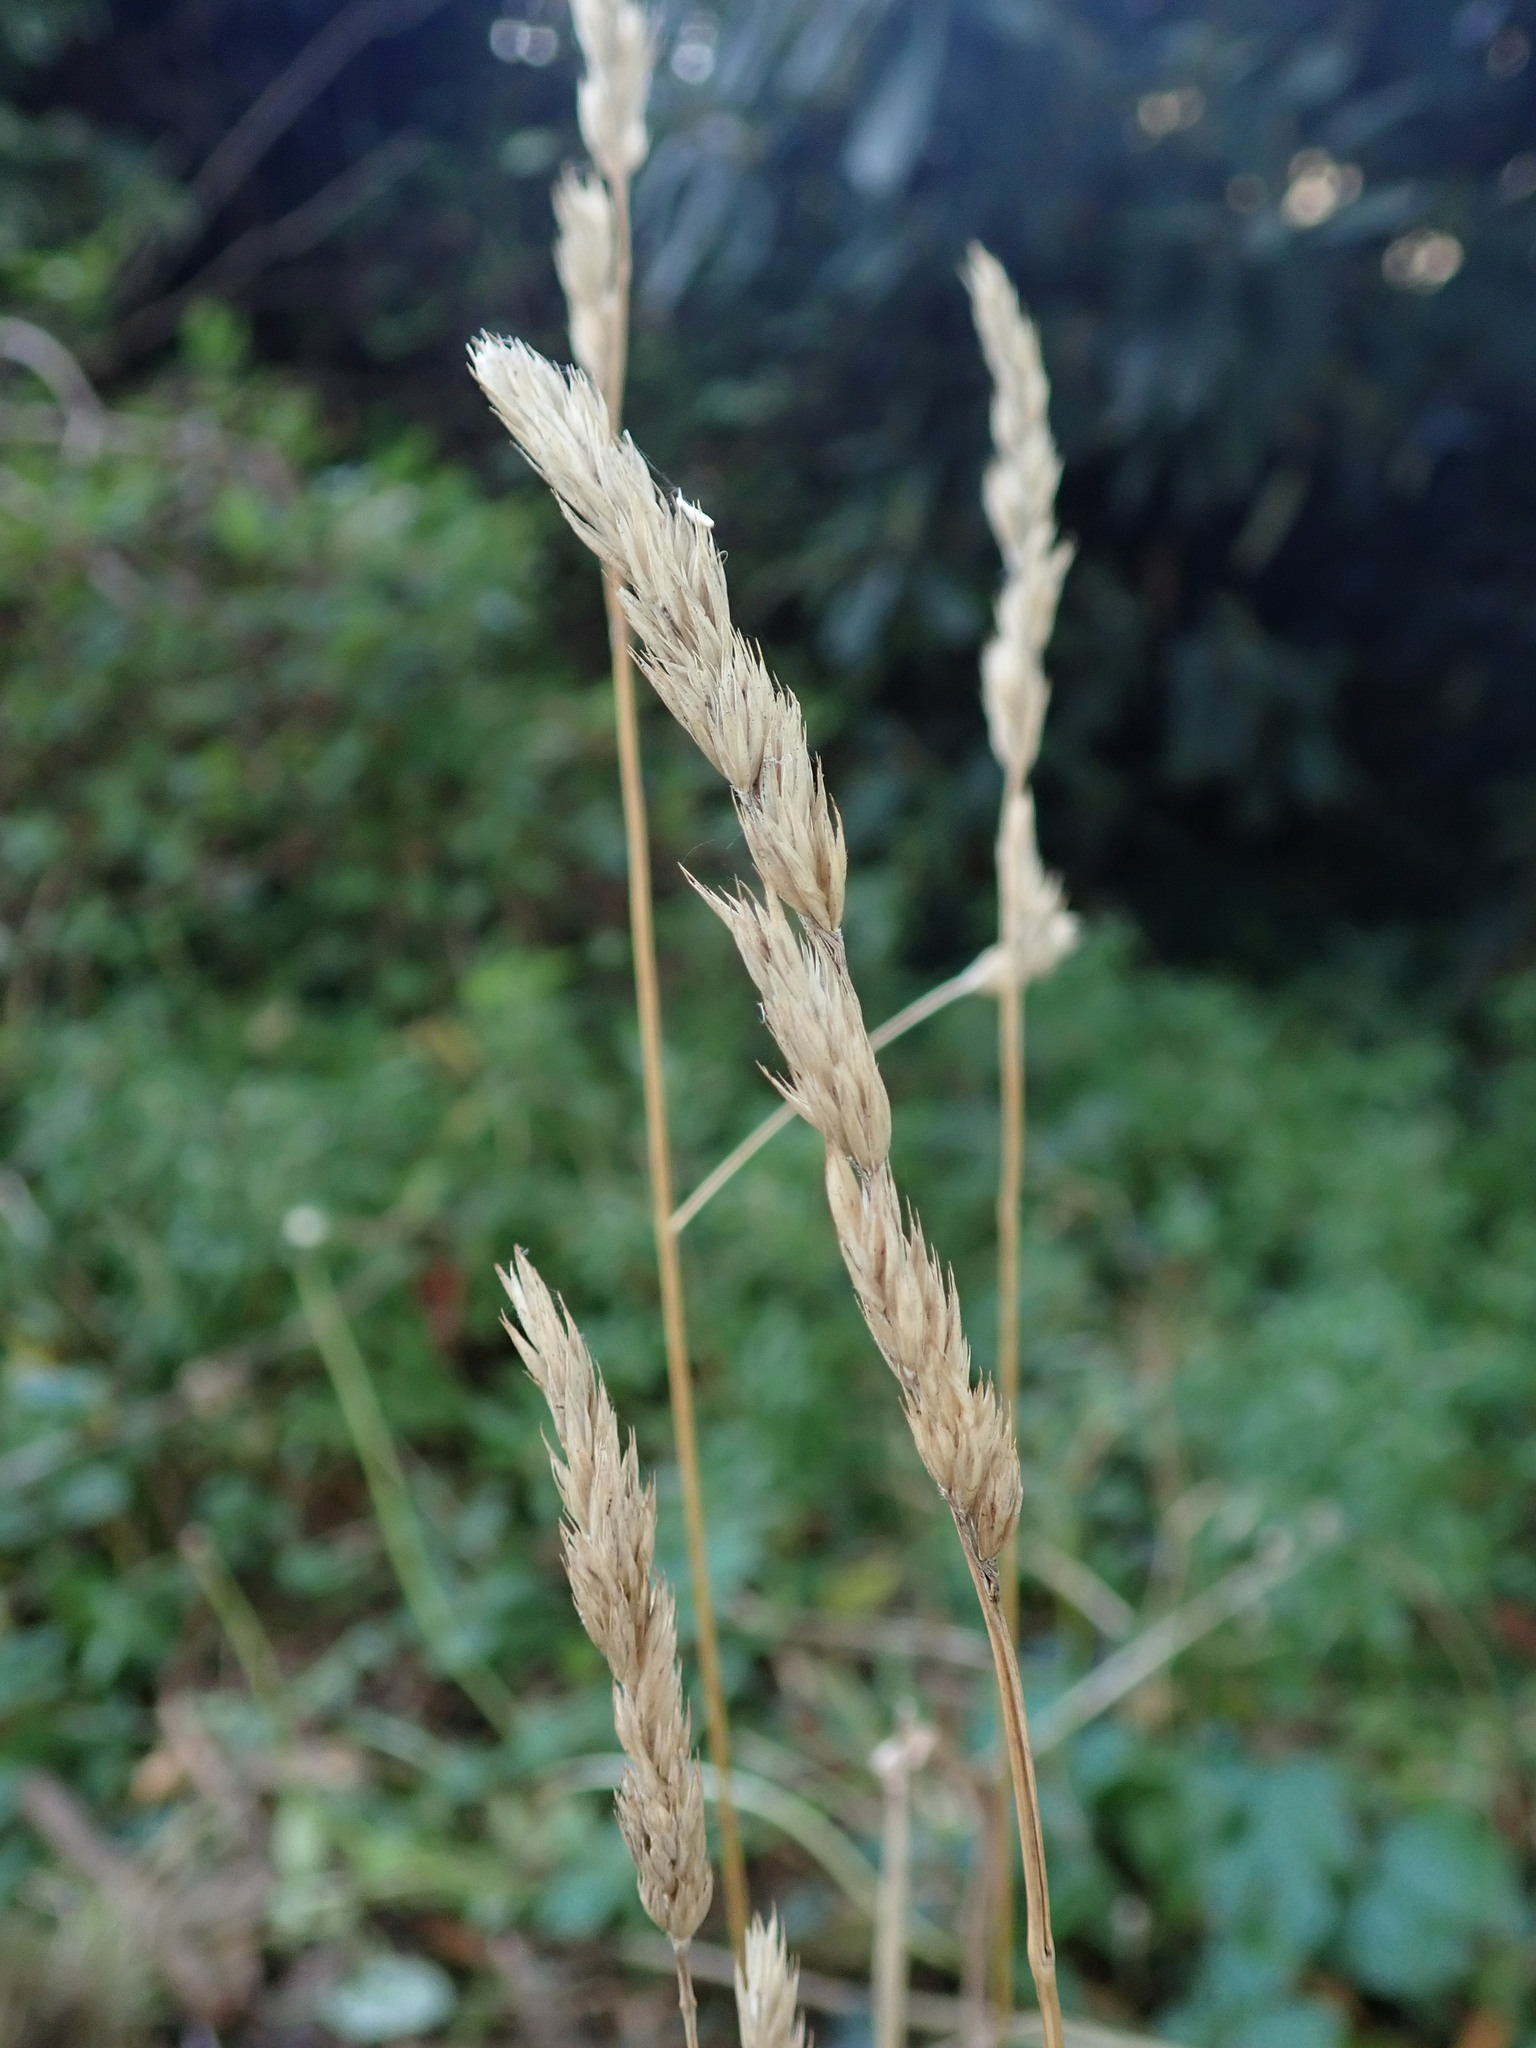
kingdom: Plantae
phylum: Tracheophyta
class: Liliopsida
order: Poales
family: Poaceae
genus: Dactylis
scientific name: Dactylis glomerata
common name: Orchardgrass
